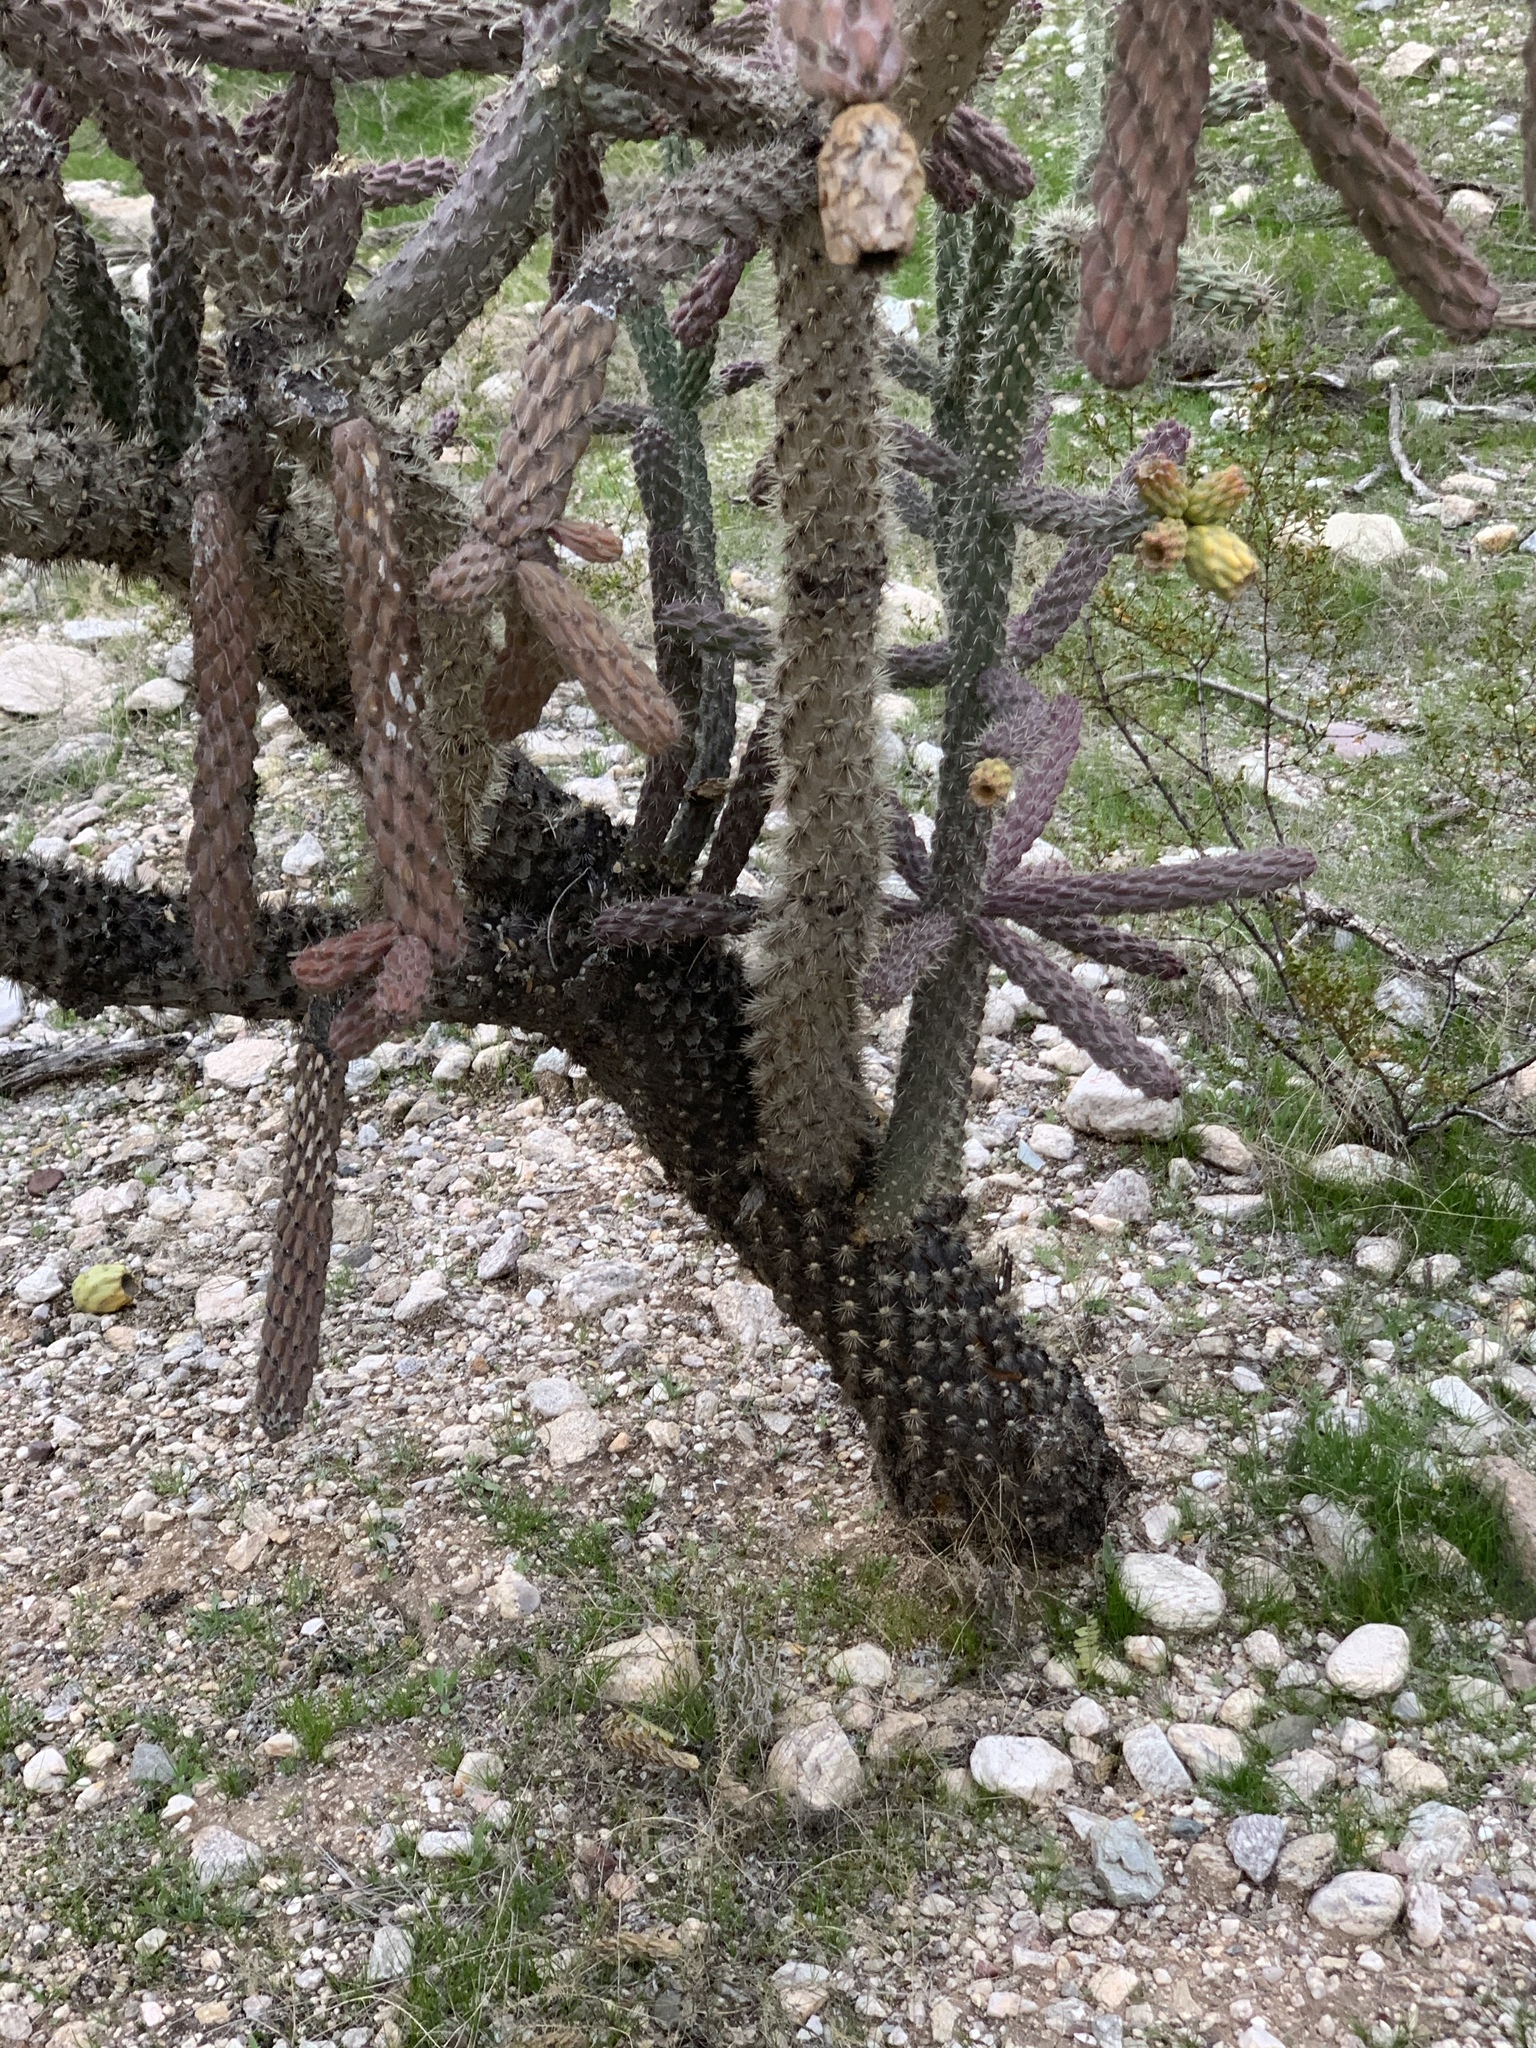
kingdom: Plantae
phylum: Tracheophyta
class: Magnoliopsida
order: Caryophyllales
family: Cactaceae
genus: Cylindropuntia
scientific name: Cylindropuntia imbricata
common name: Candelabrum cactus
